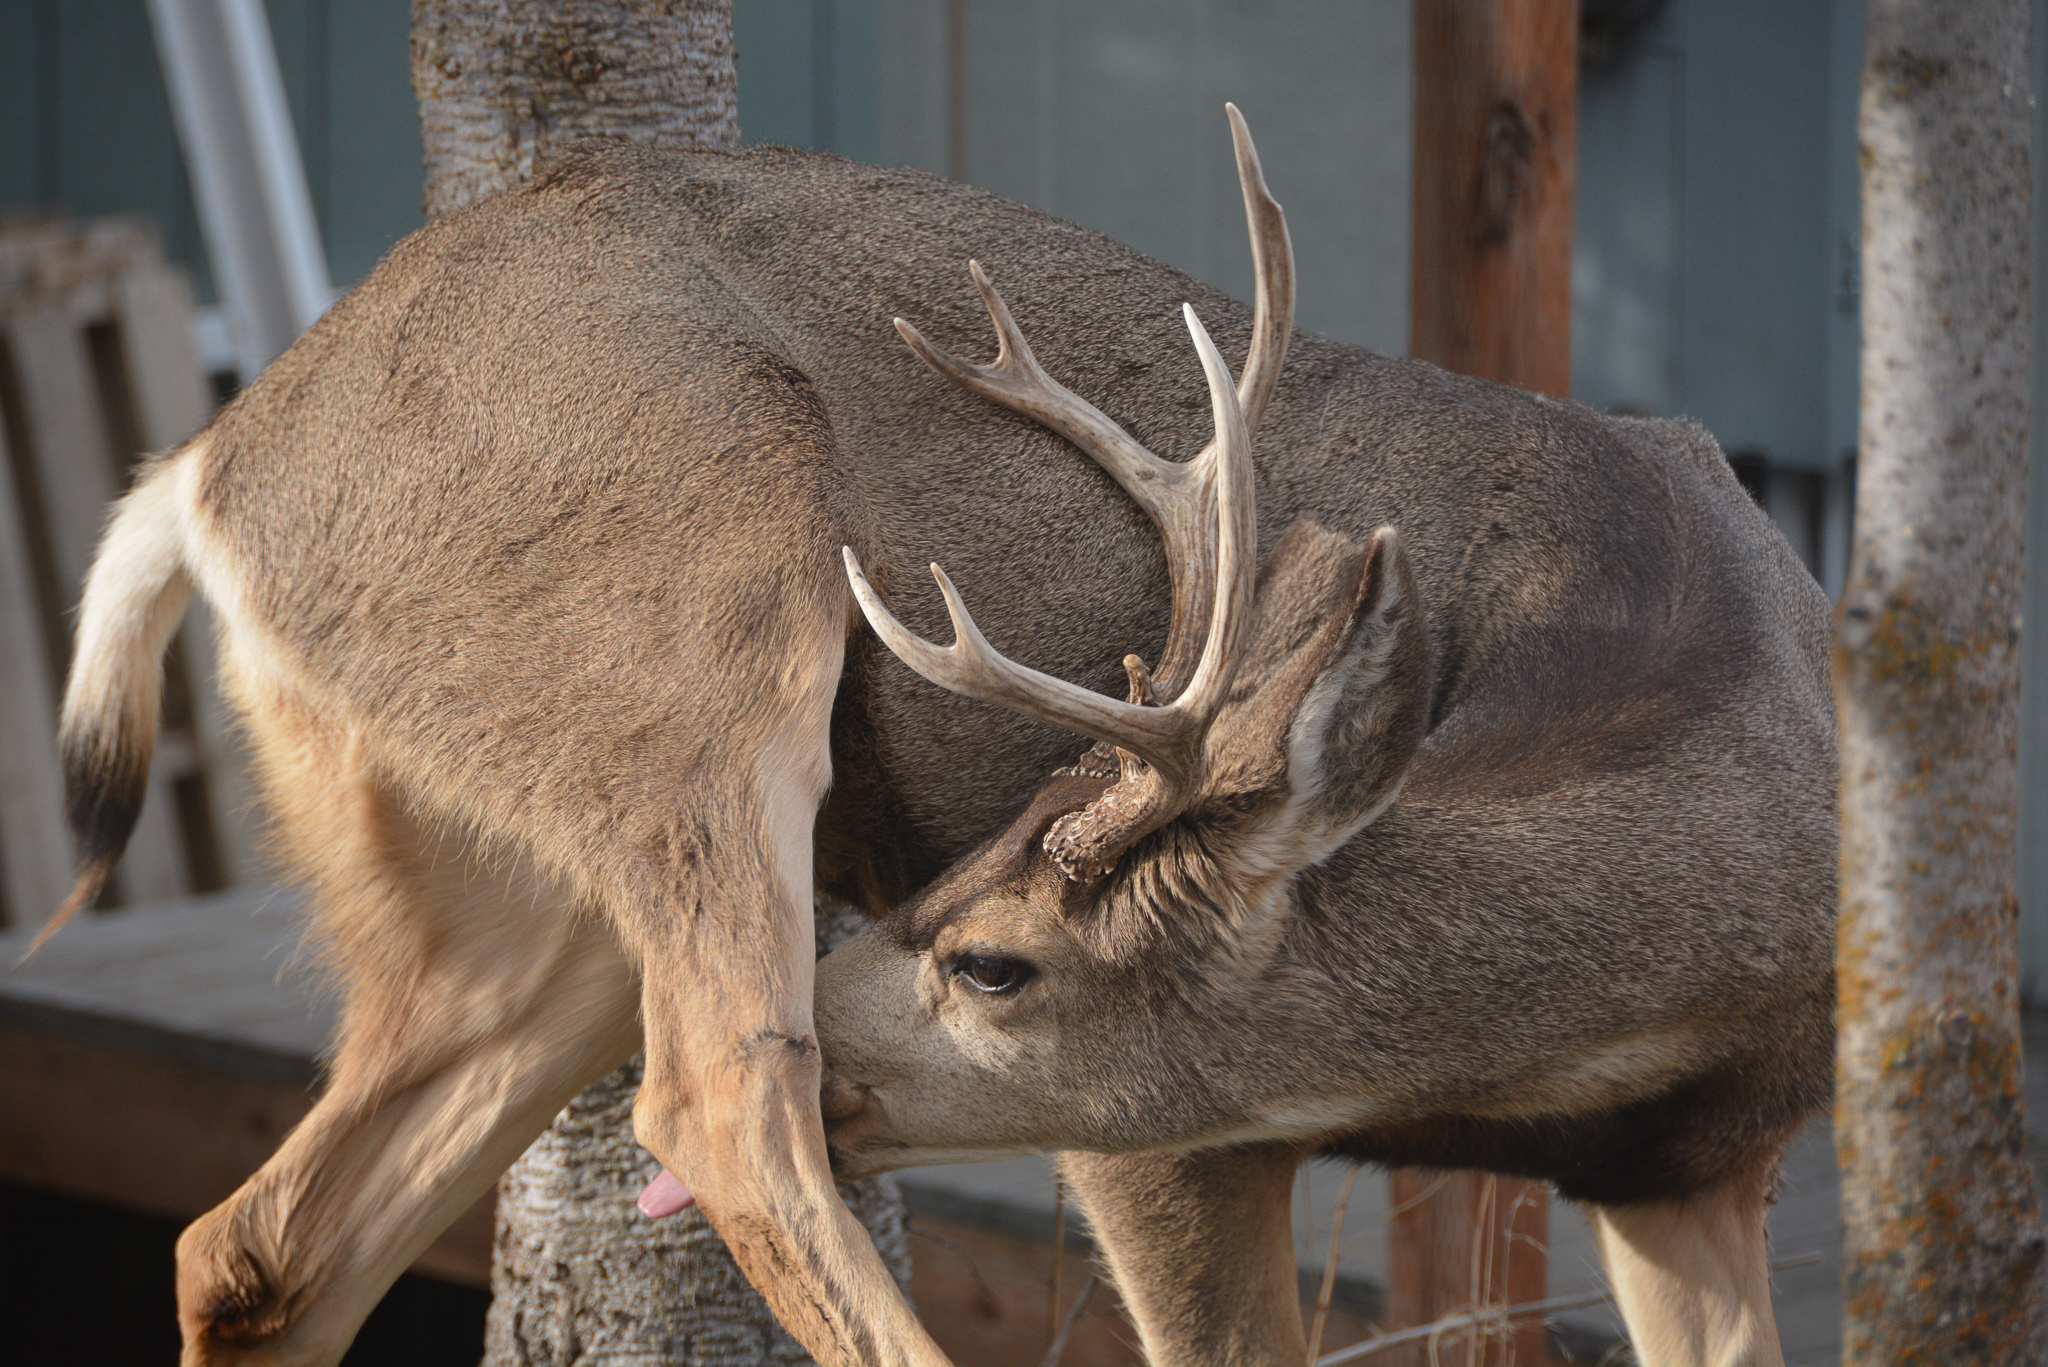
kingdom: Animalia
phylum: Chordata
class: Mammalia
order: Artiodactyla
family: Cervidae
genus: Odocoileus
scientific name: Odocoileus hemionus
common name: Mule deer
